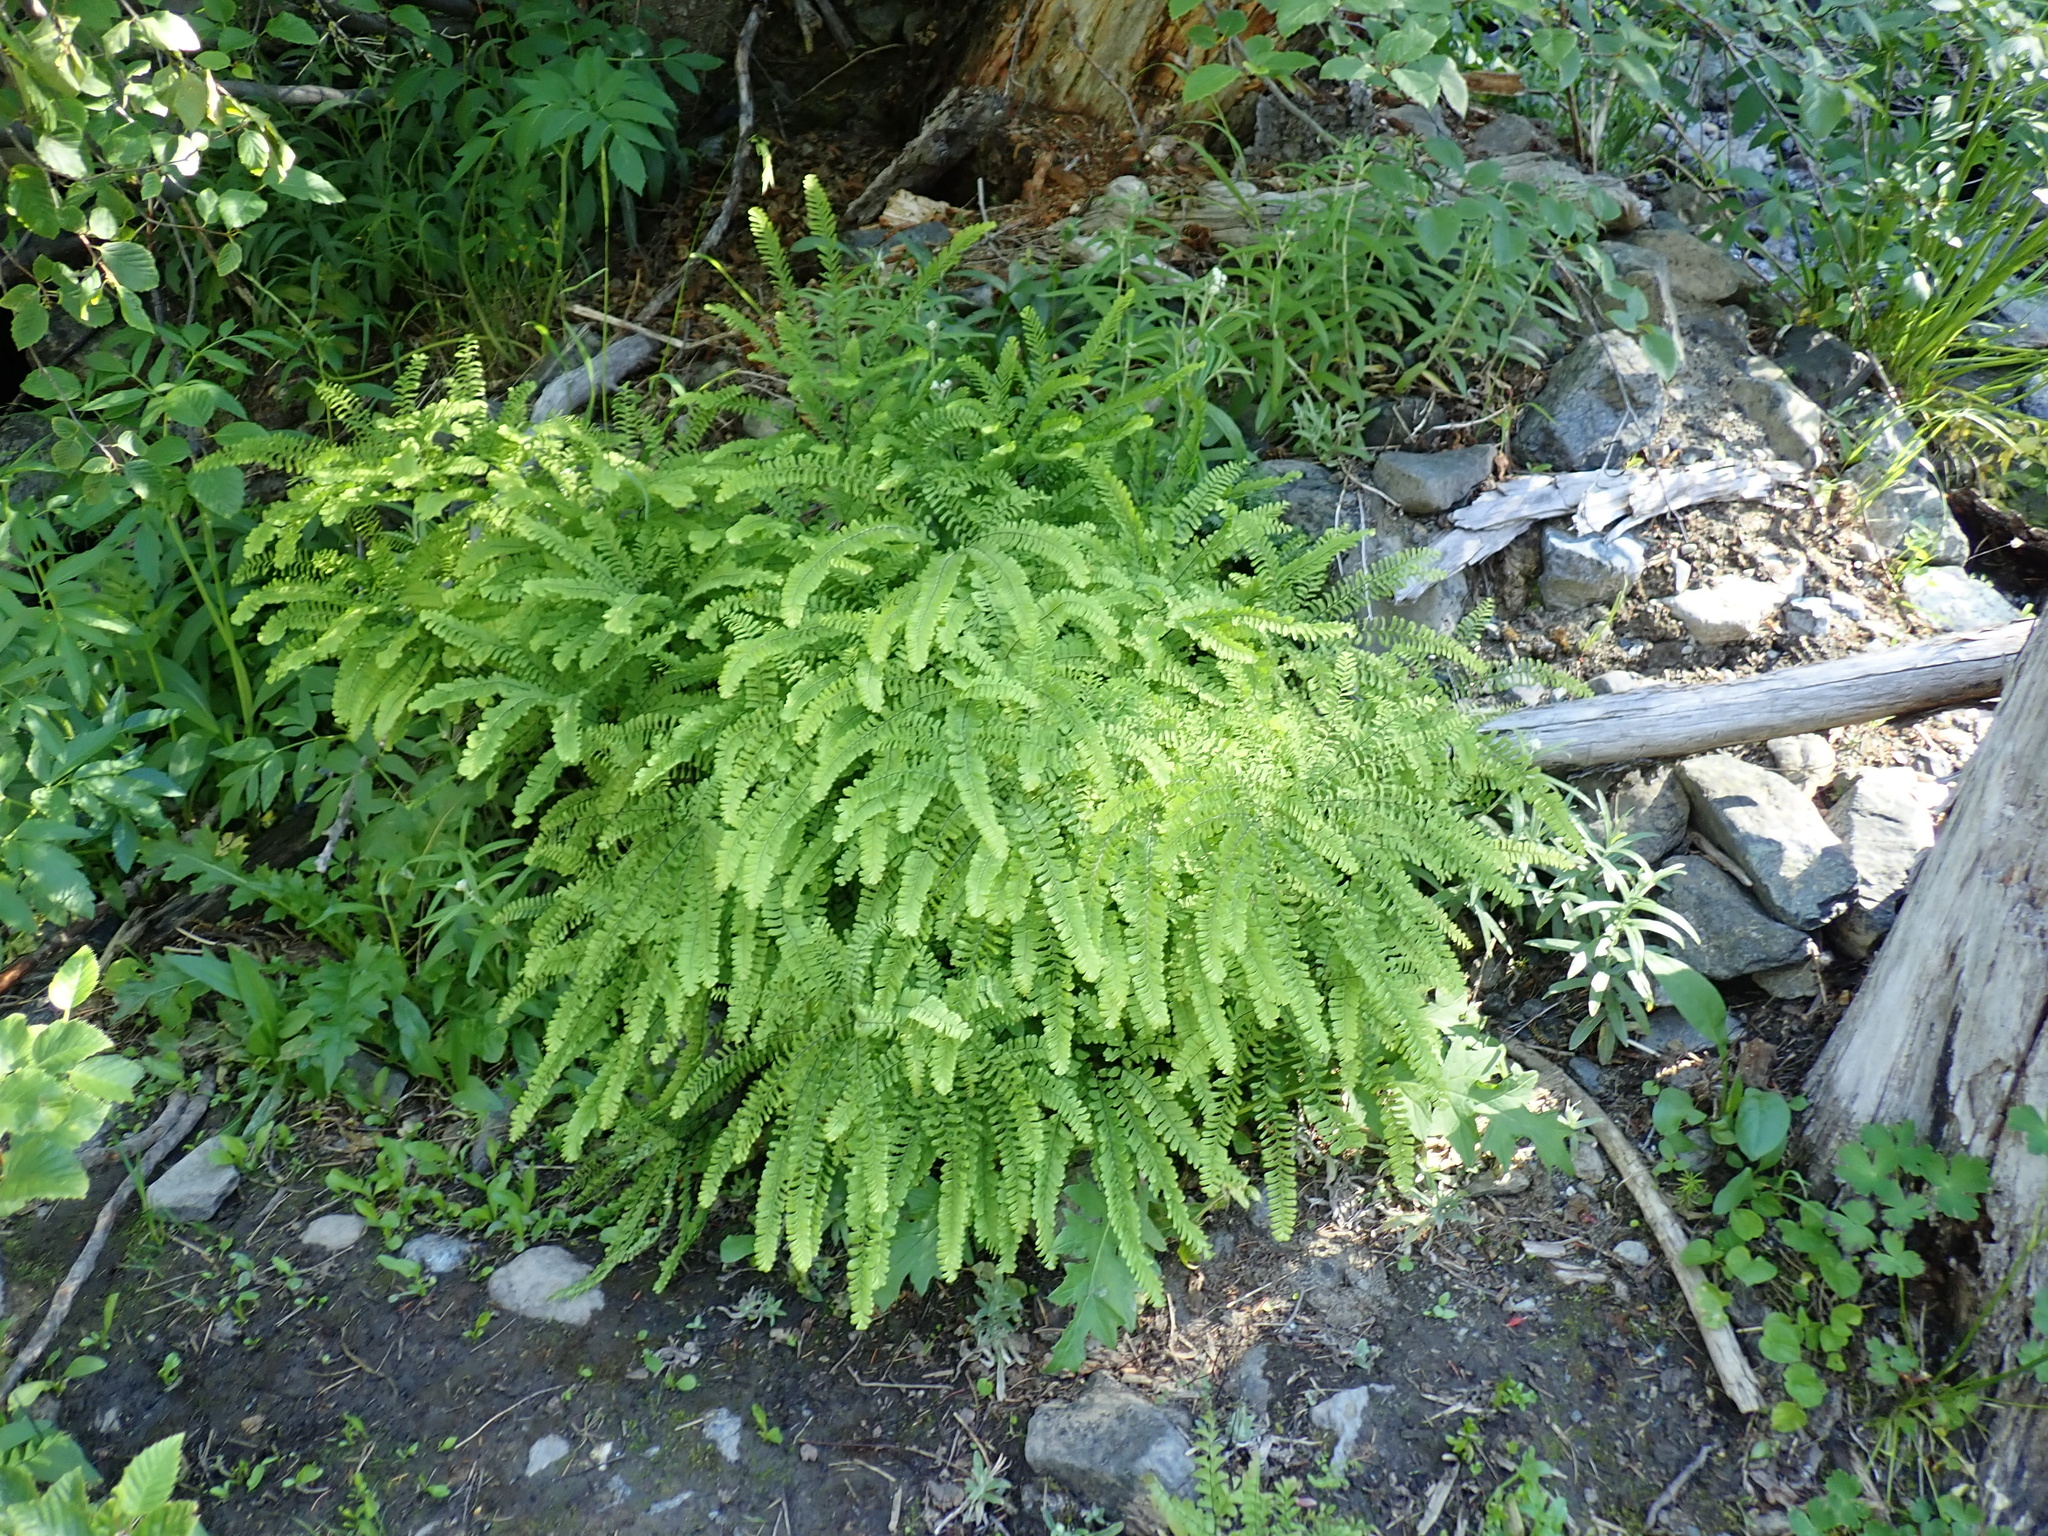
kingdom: Plantae
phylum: Tracheophyta
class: Polypodiopsida
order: Polypodiales
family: Pteridaceae
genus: Adiantum
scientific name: Adiantum aleuticum
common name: Aleutian maidenhair fern
